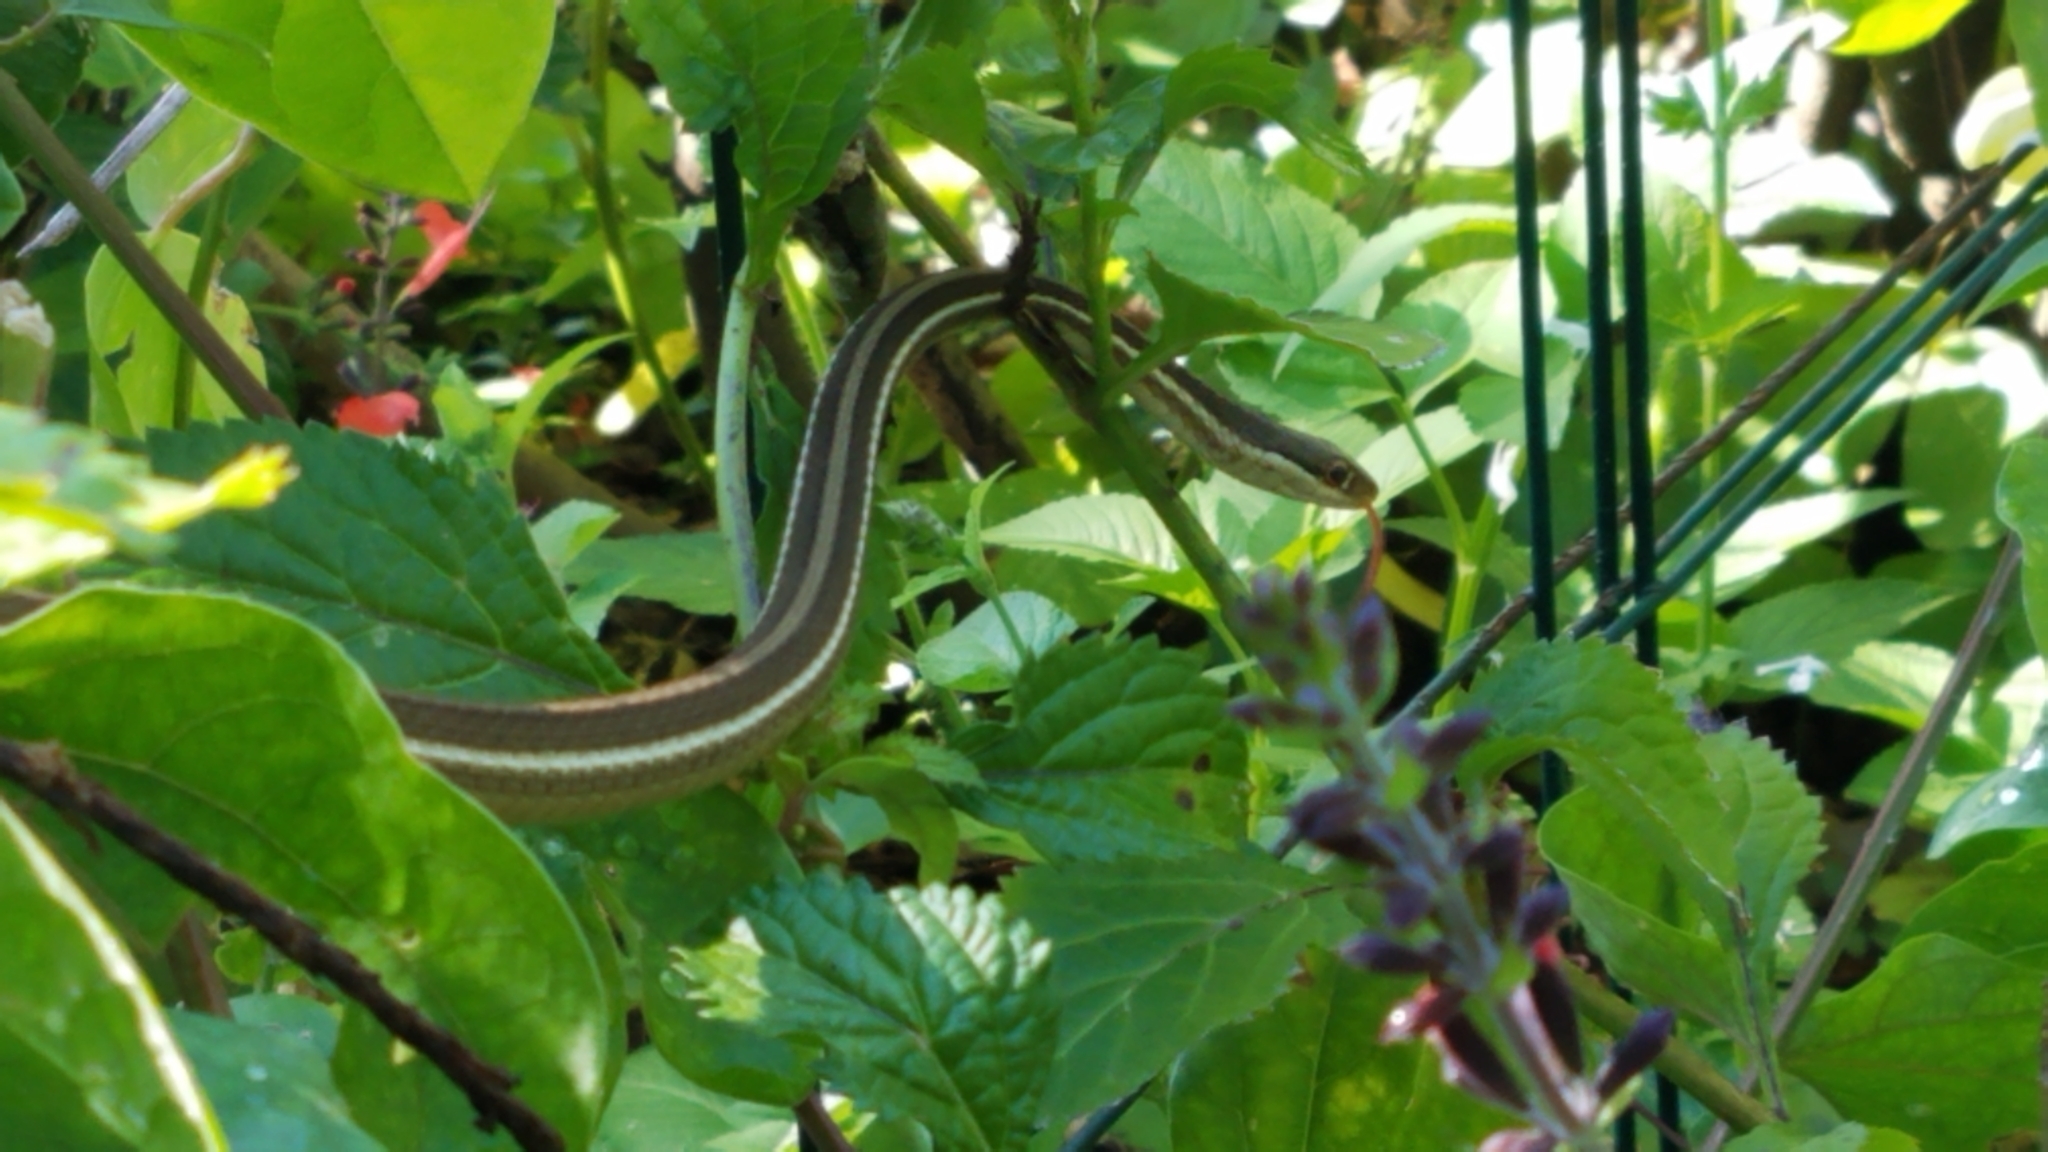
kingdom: Animalia
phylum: Chordata
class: Squamata
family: Colubridae
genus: Thamnophis
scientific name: Thamnophis saurita
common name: Eastern ribbonsnake
